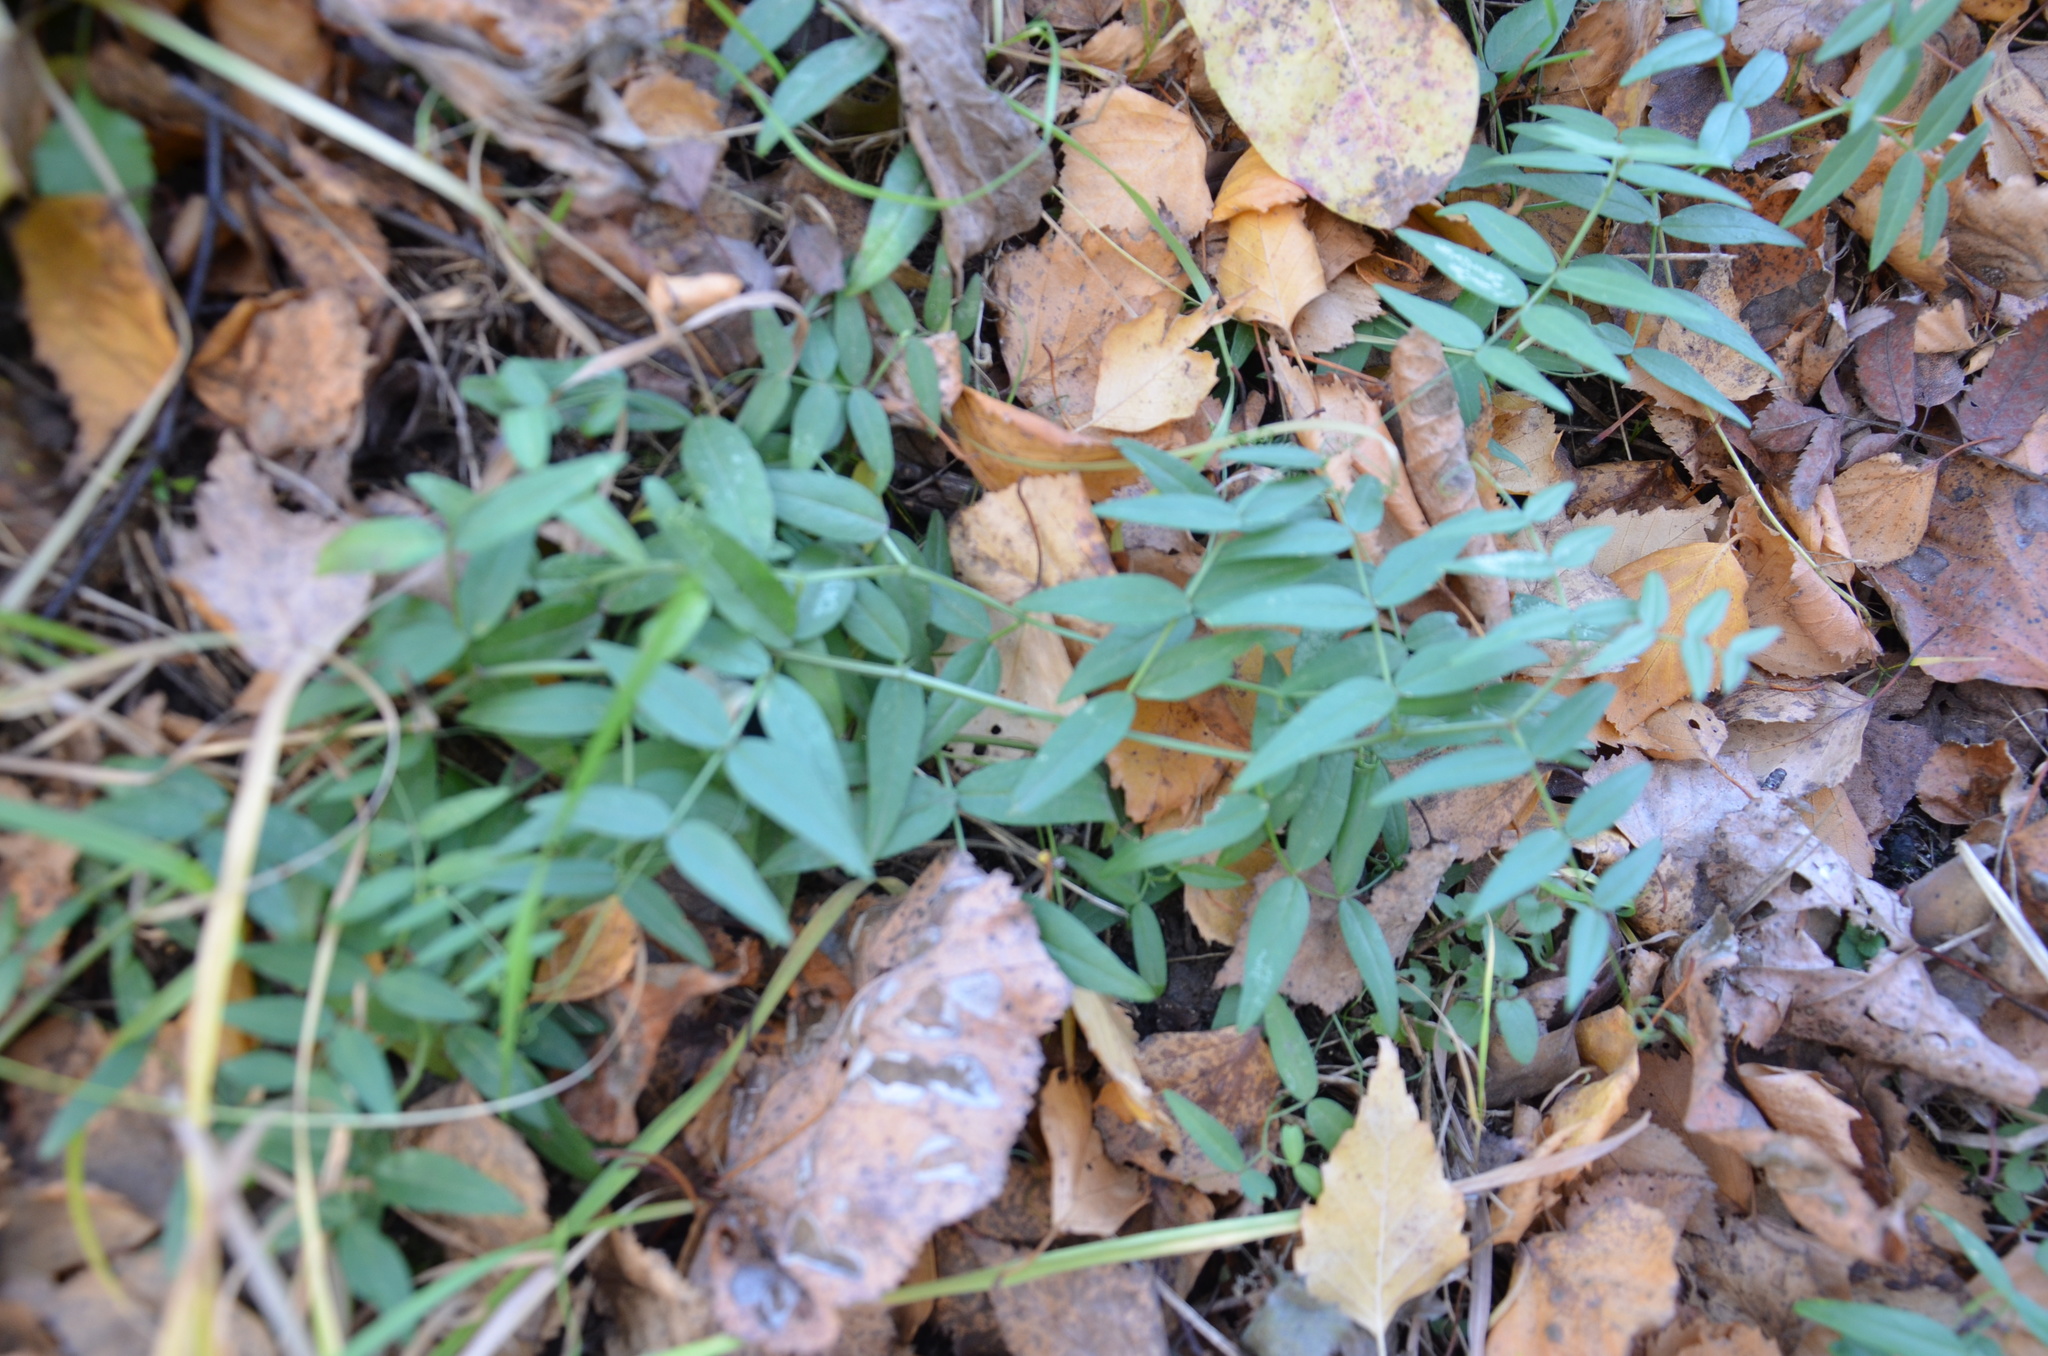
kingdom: Plantae
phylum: Tracheophyta
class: Magnoliopsida
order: Fabales
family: Fabaceae
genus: Vicia
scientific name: Vicia sepium
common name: Bush vetch
